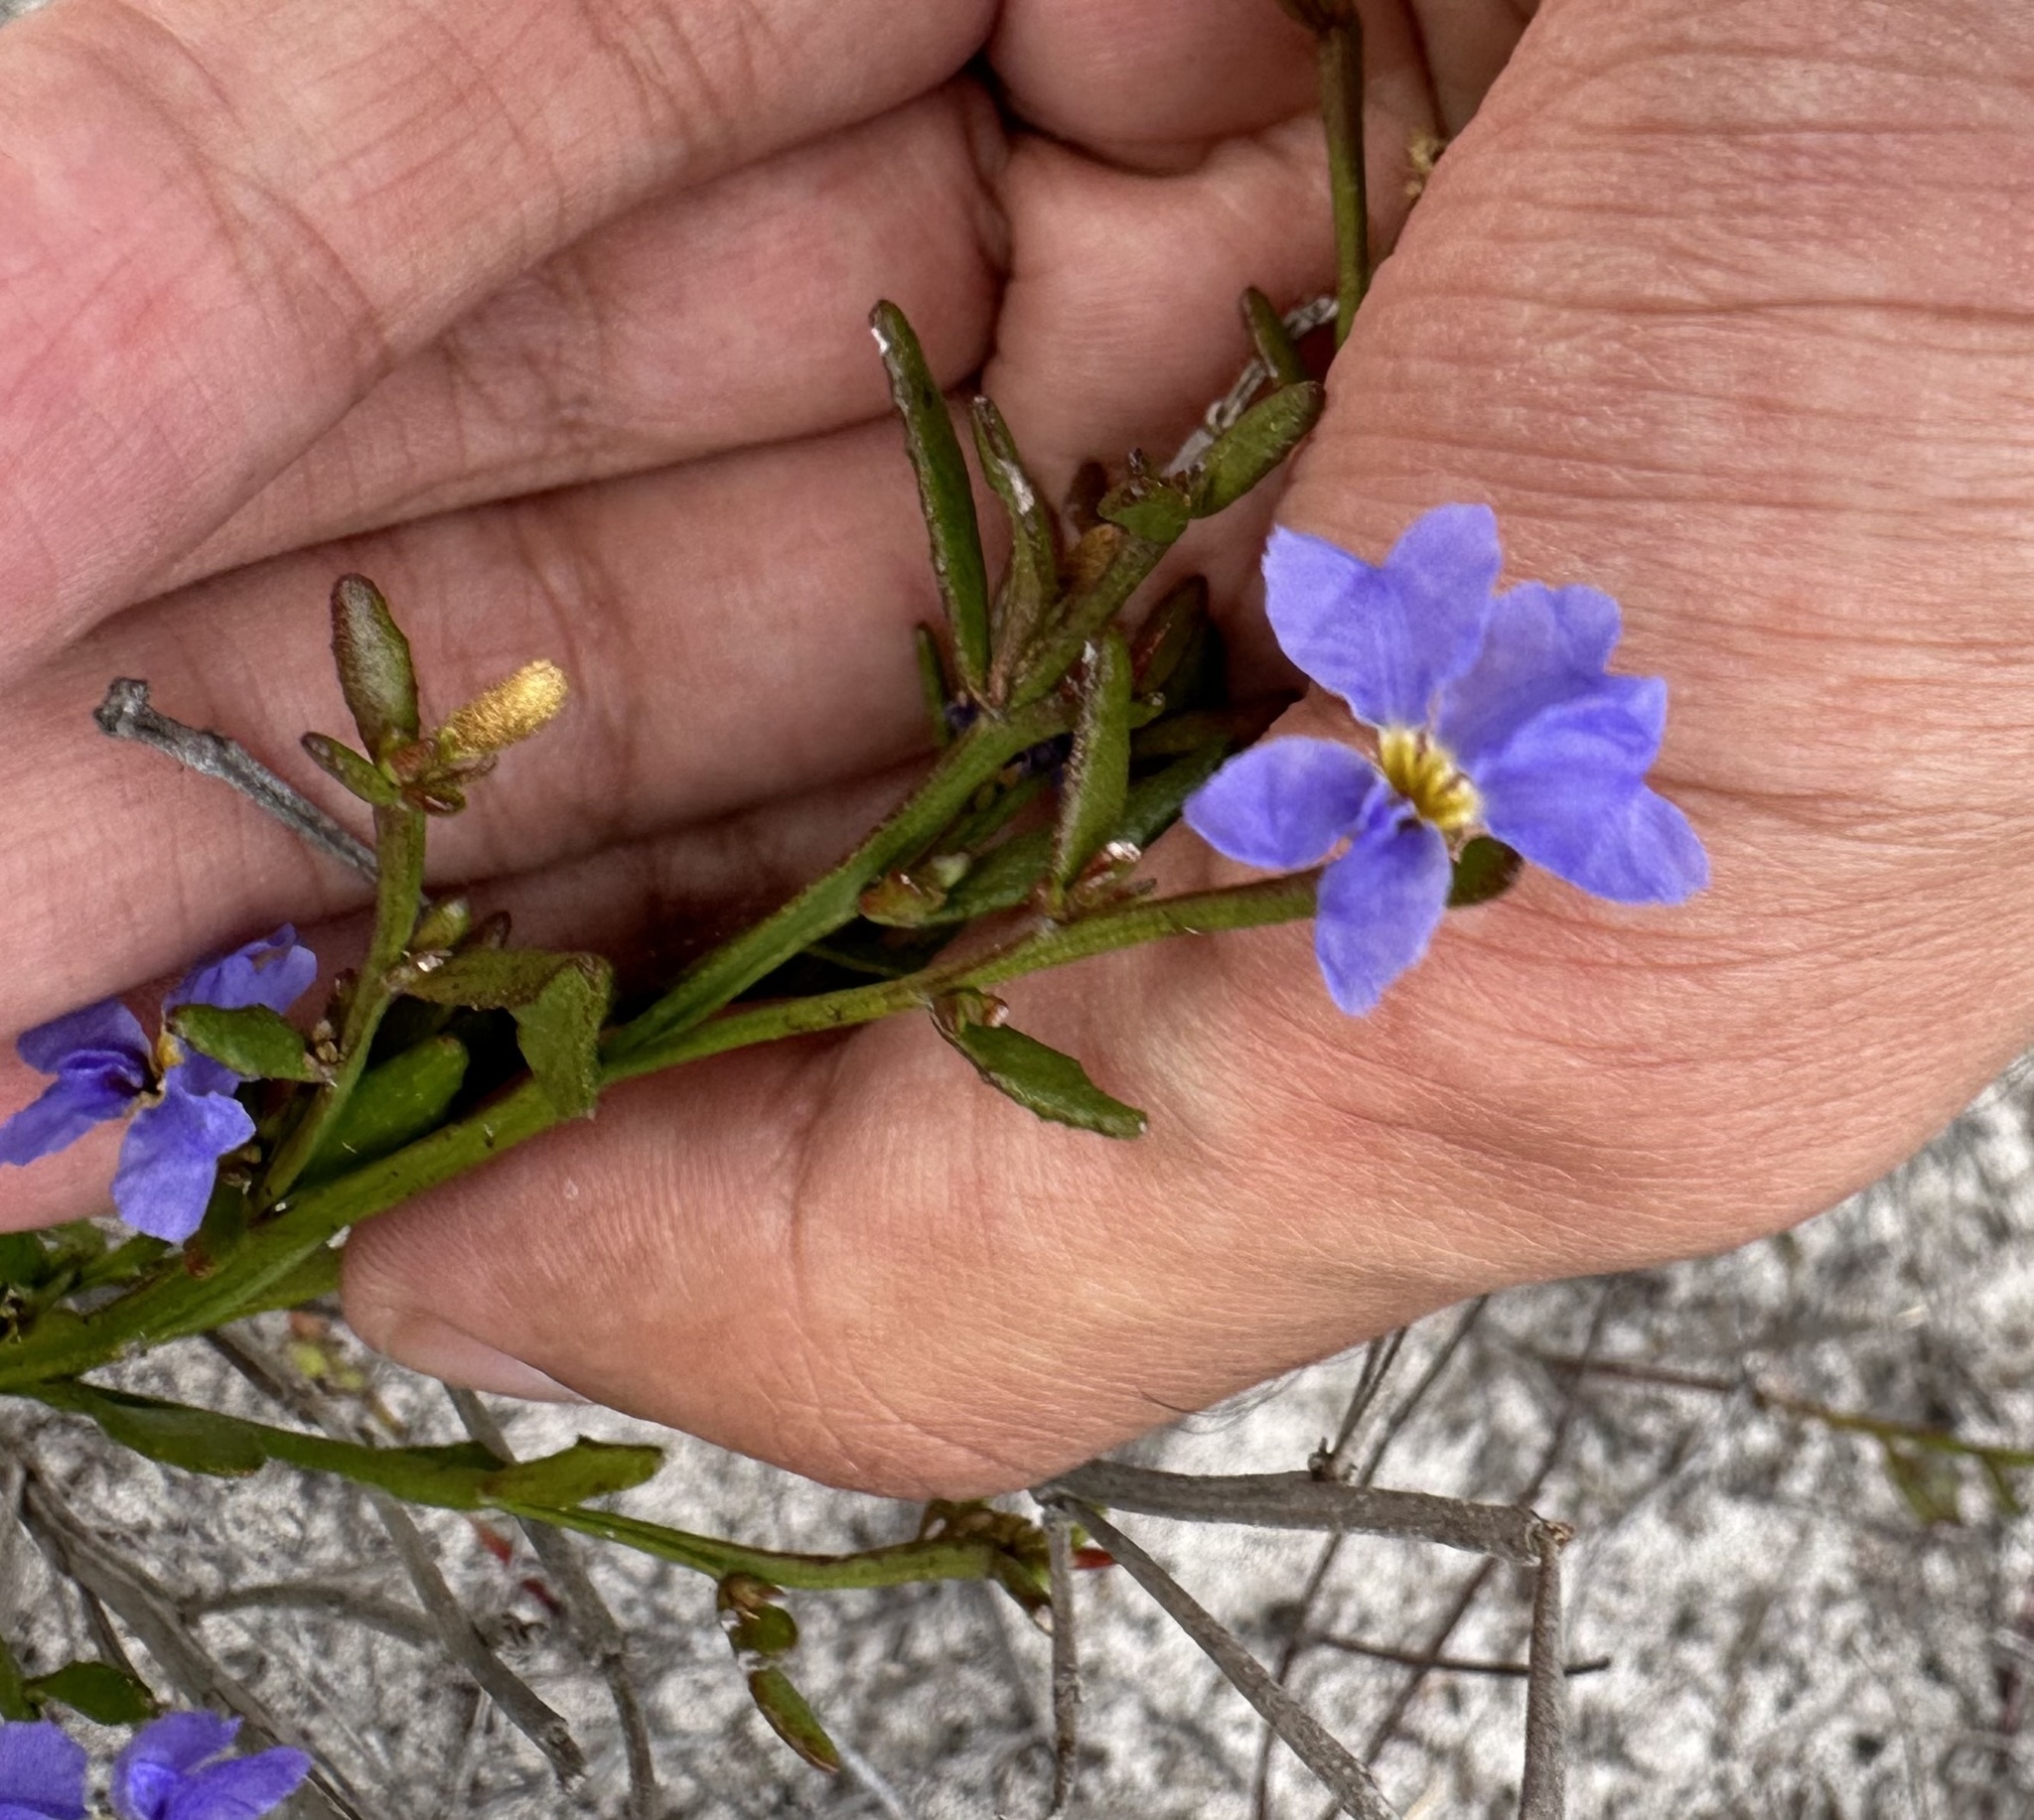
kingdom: Plantae
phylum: Tracheophyta
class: Magnoliopsida
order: Asterales
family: Goodeniaceae
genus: Dampiera
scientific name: Dampiera stricta
